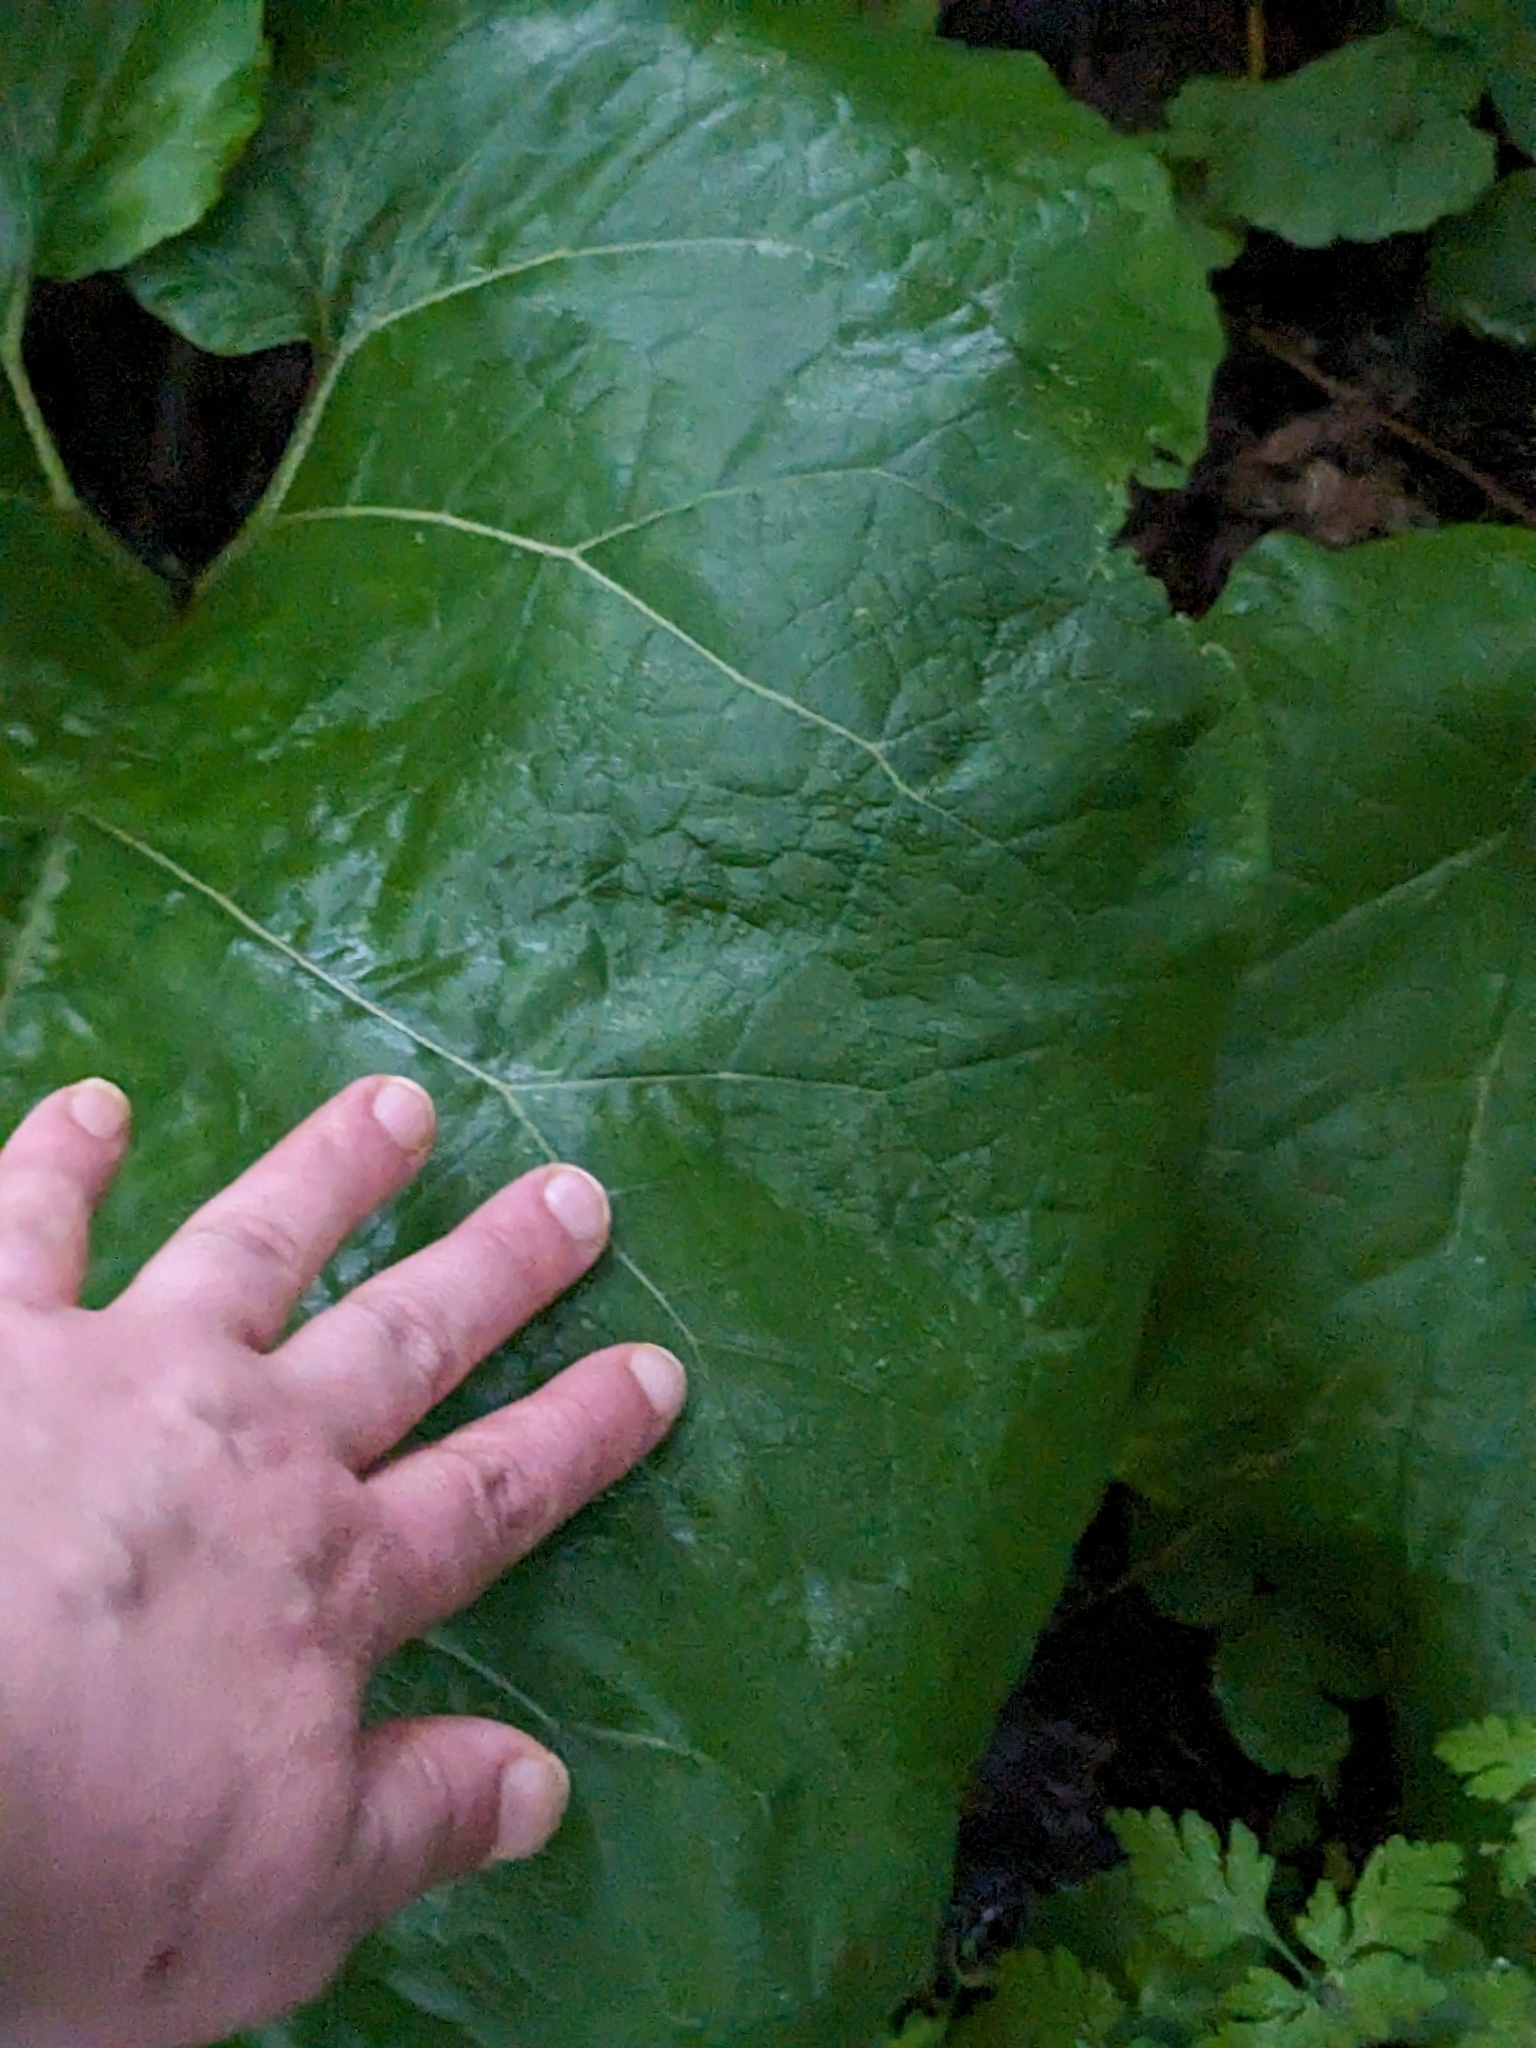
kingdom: Plantae
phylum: Tracheophyta
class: Magnoliopsida
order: Asterales
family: Asteraceae
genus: Arctium
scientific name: Arctium minus
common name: Lesser burdock
